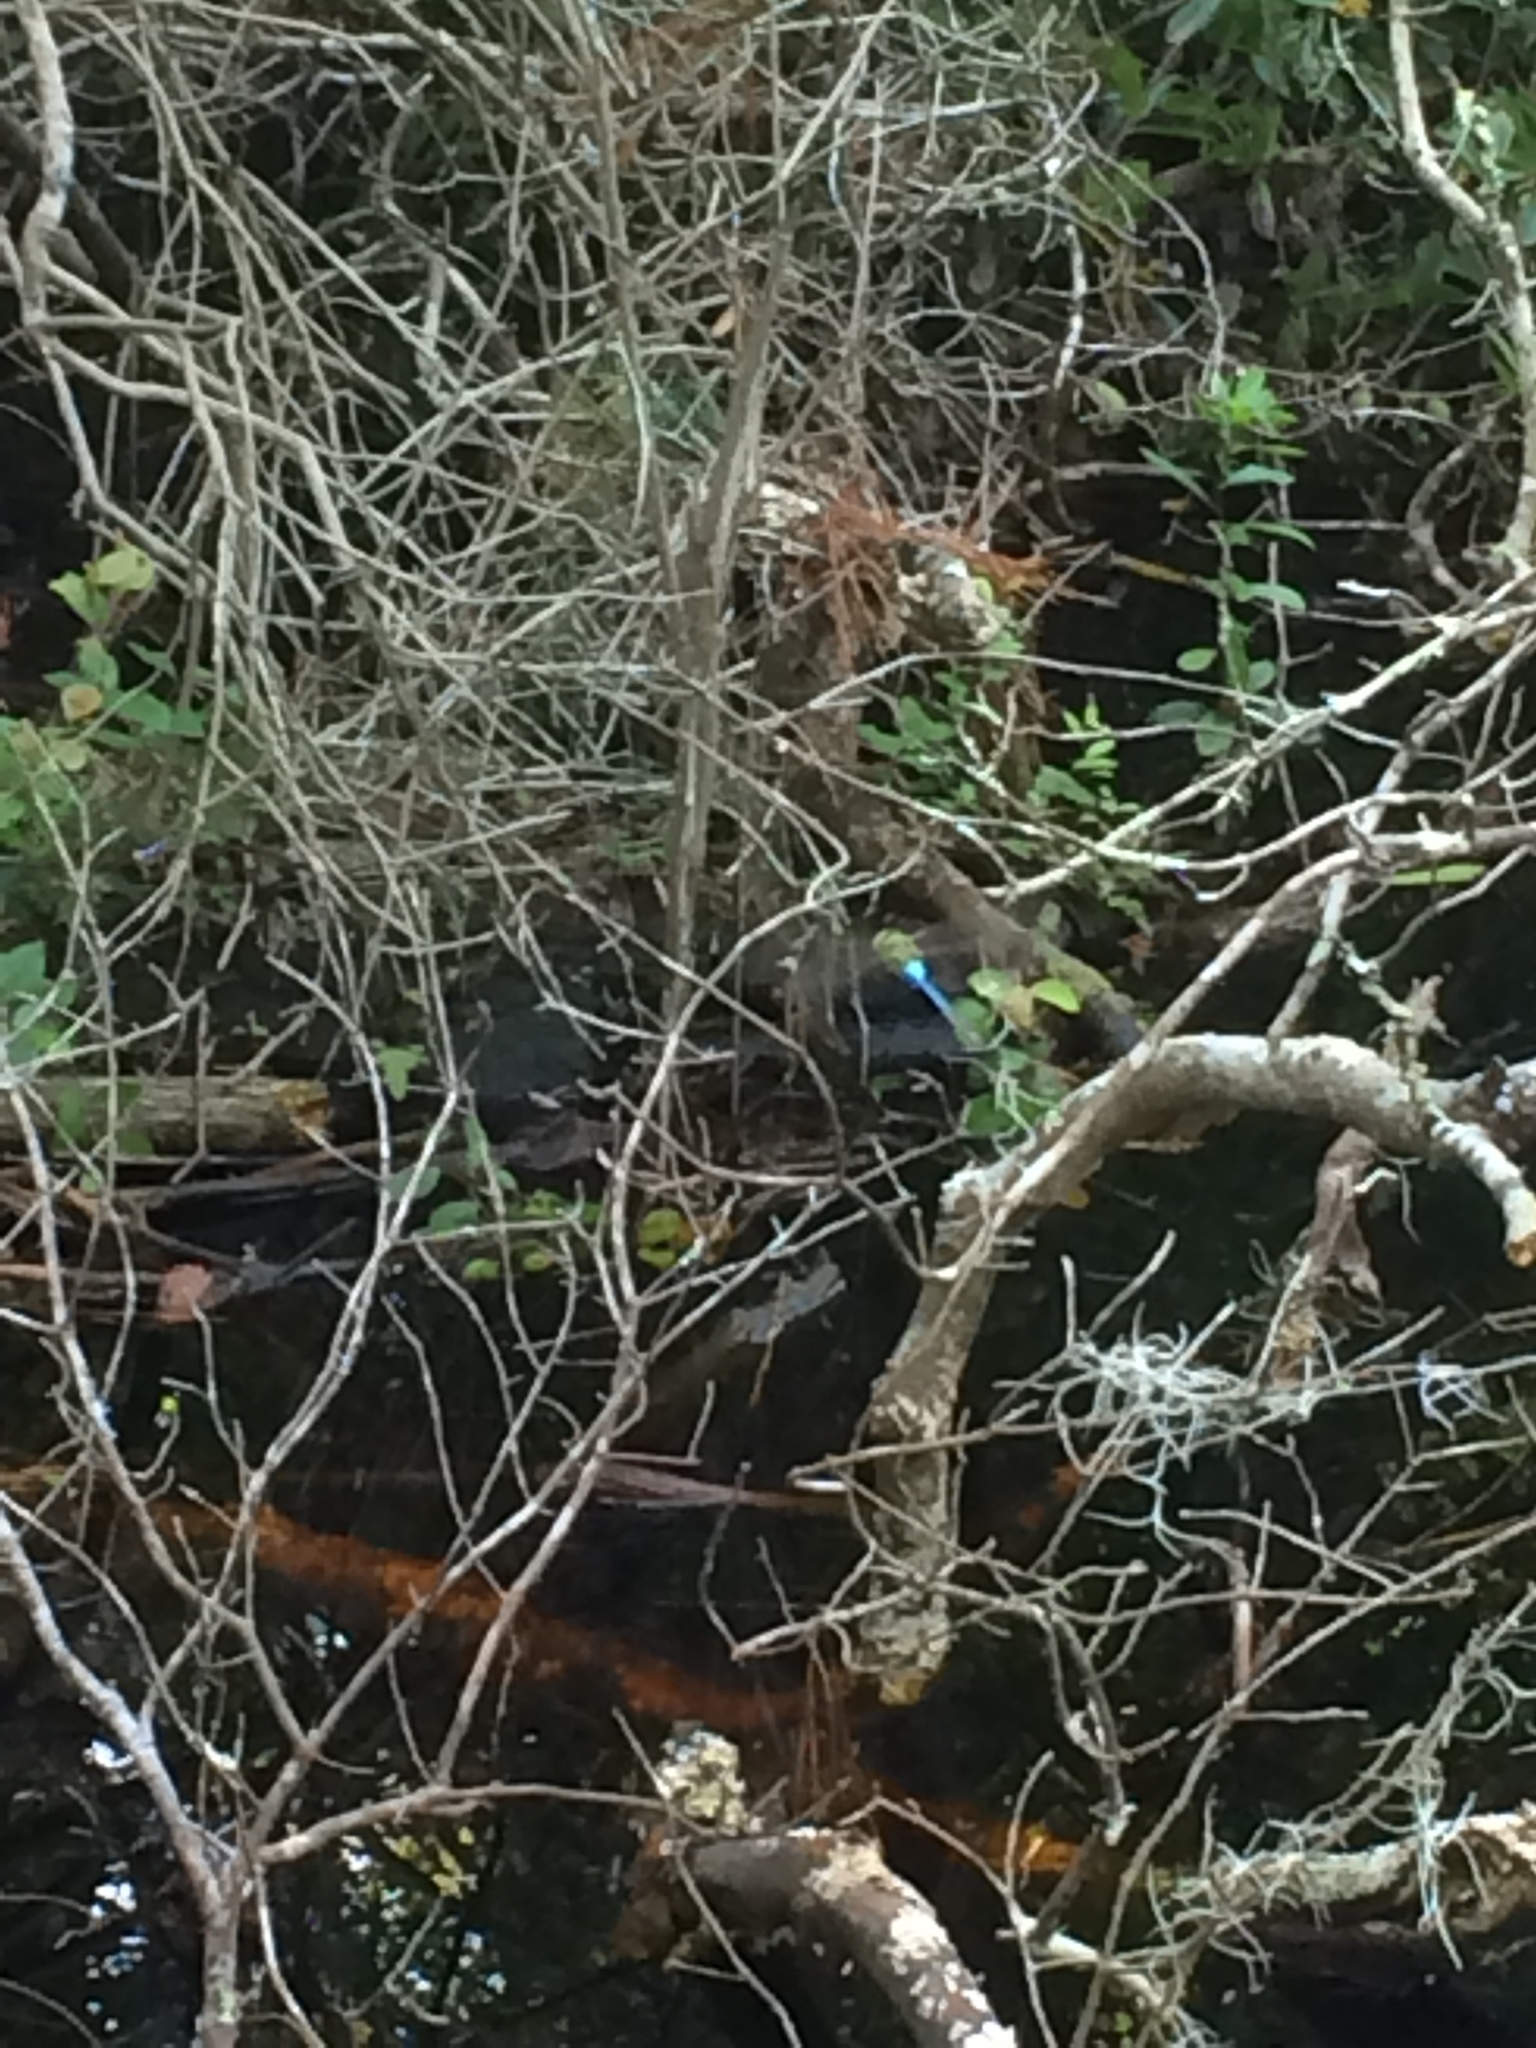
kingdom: Animalia
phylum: Arthropoda
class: Insecta
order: Odonata
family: Aeshnidae
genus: Anax
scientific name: Anax junius
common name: Common green darner
